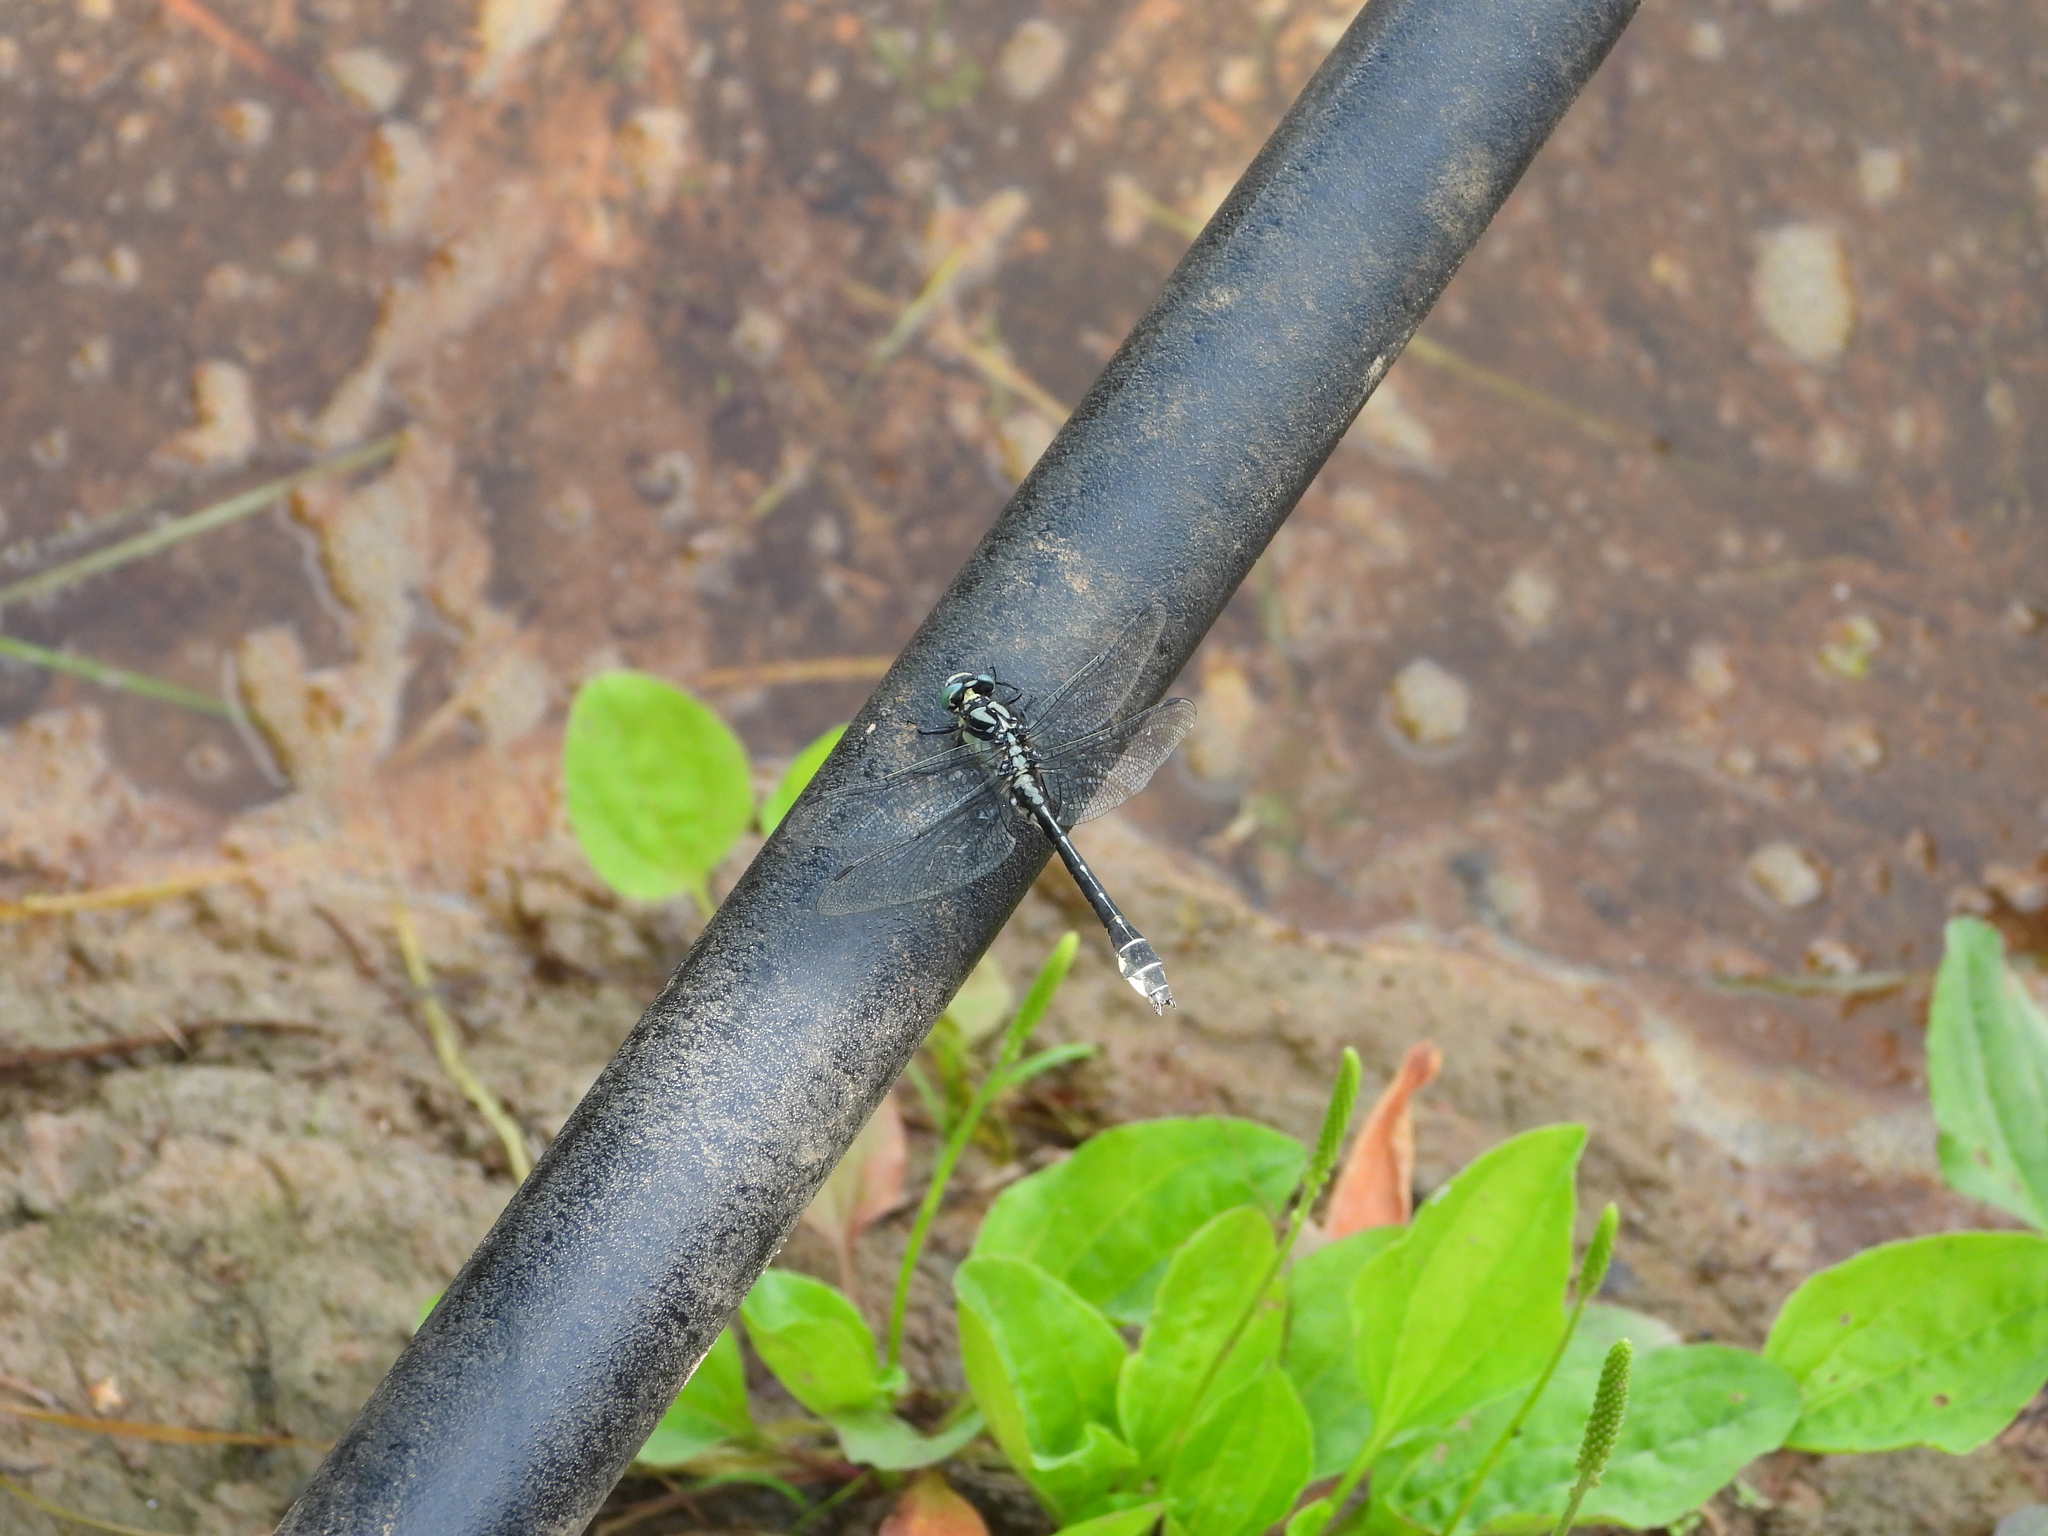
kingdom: Animalia
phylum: Arthropoda
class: Insecta
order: Odonata
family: Gomphidae
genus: Gomphus
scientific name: Gomphus vulgatissimus
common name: Club-tailed dragonfly
